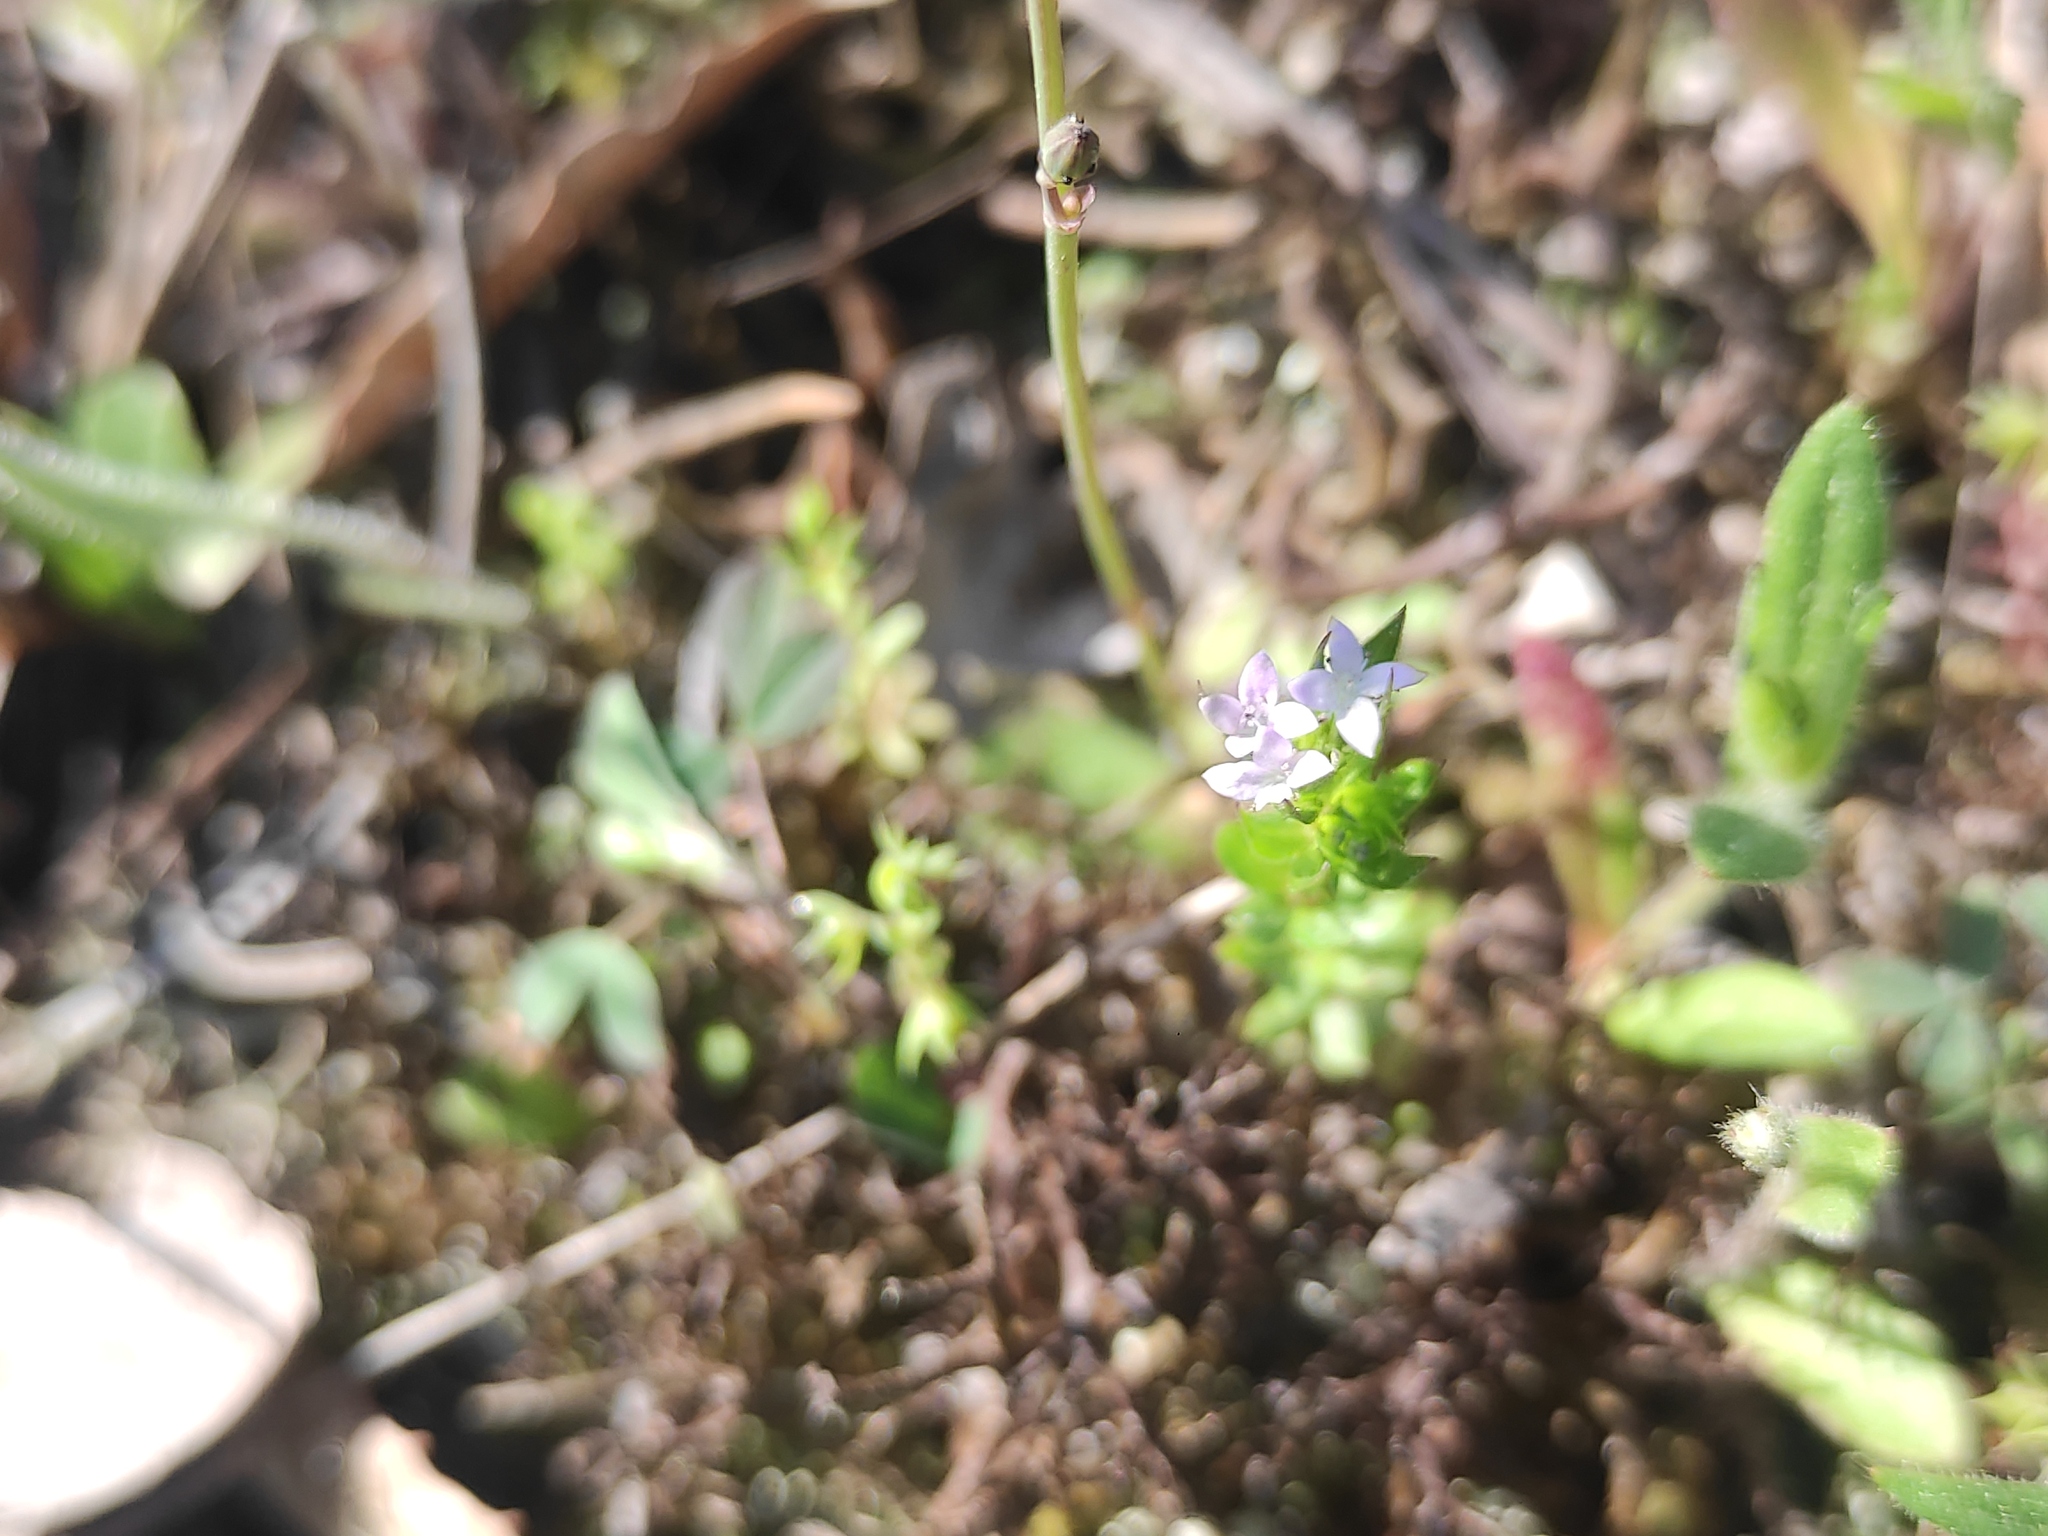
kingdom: Plantae
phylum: Tracheophyta
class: Magnoliopsida
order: Gentianales
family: Rubiaceae
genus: Sherardia
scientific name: Sherardia arvensis
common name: Field madder
